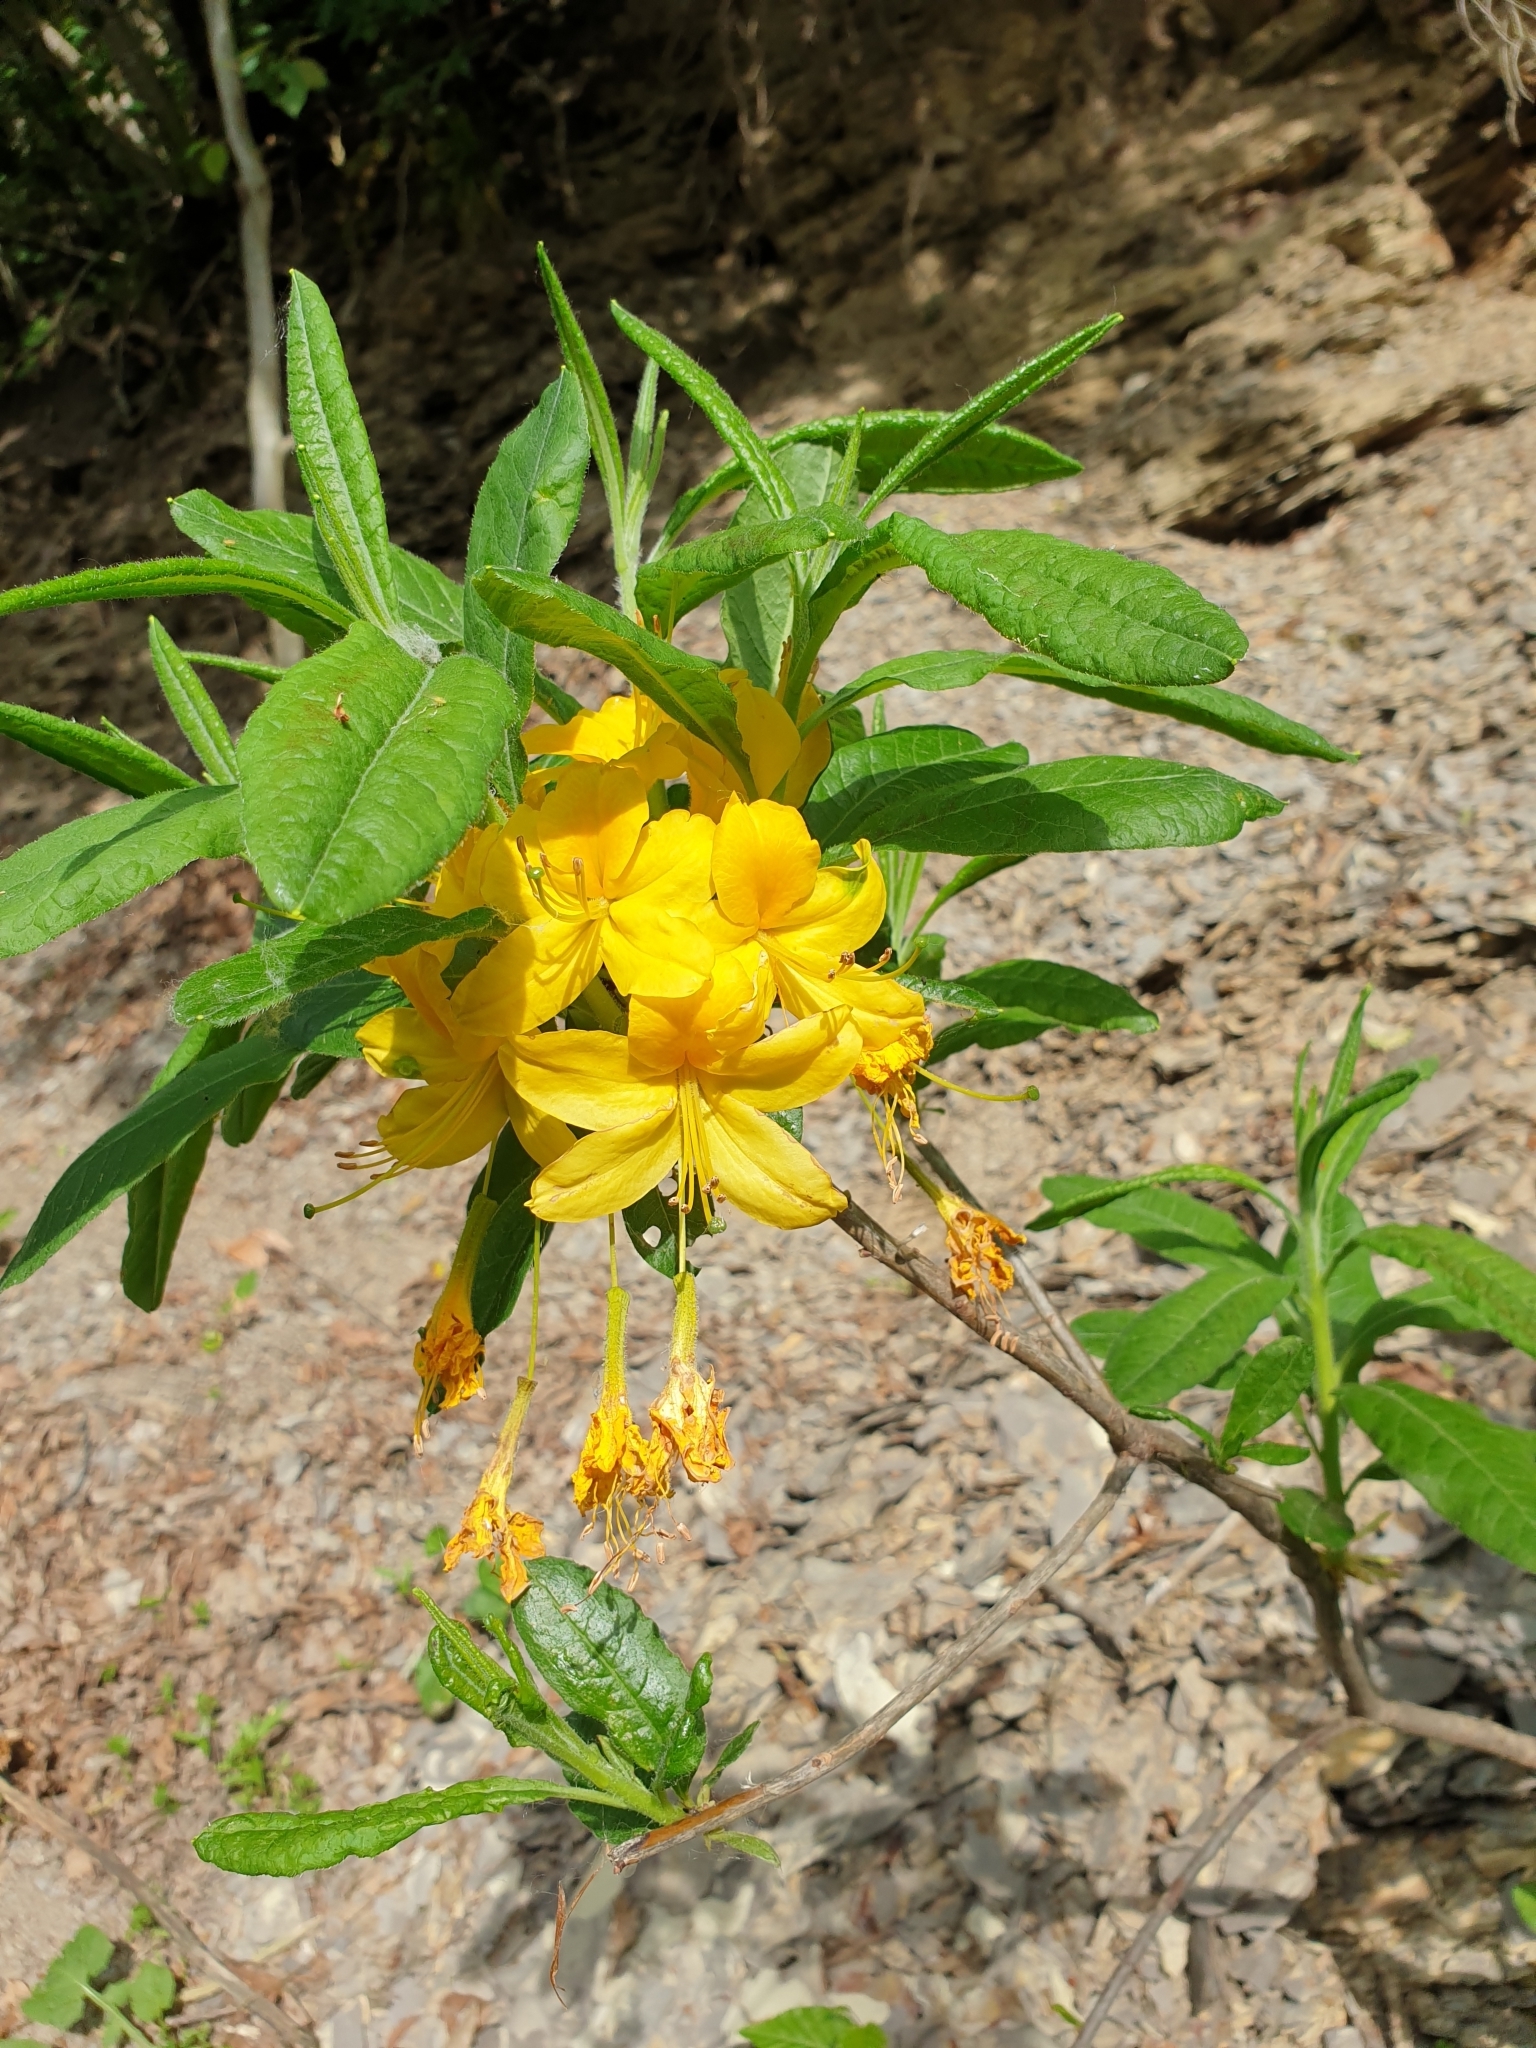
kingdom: Plantae
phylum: Tracheophyta
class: Magnoliopsida
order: Ericales
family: Ericaceae
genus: Rhododendron
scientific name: Rhododendron luteum
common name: Yellow azalea
